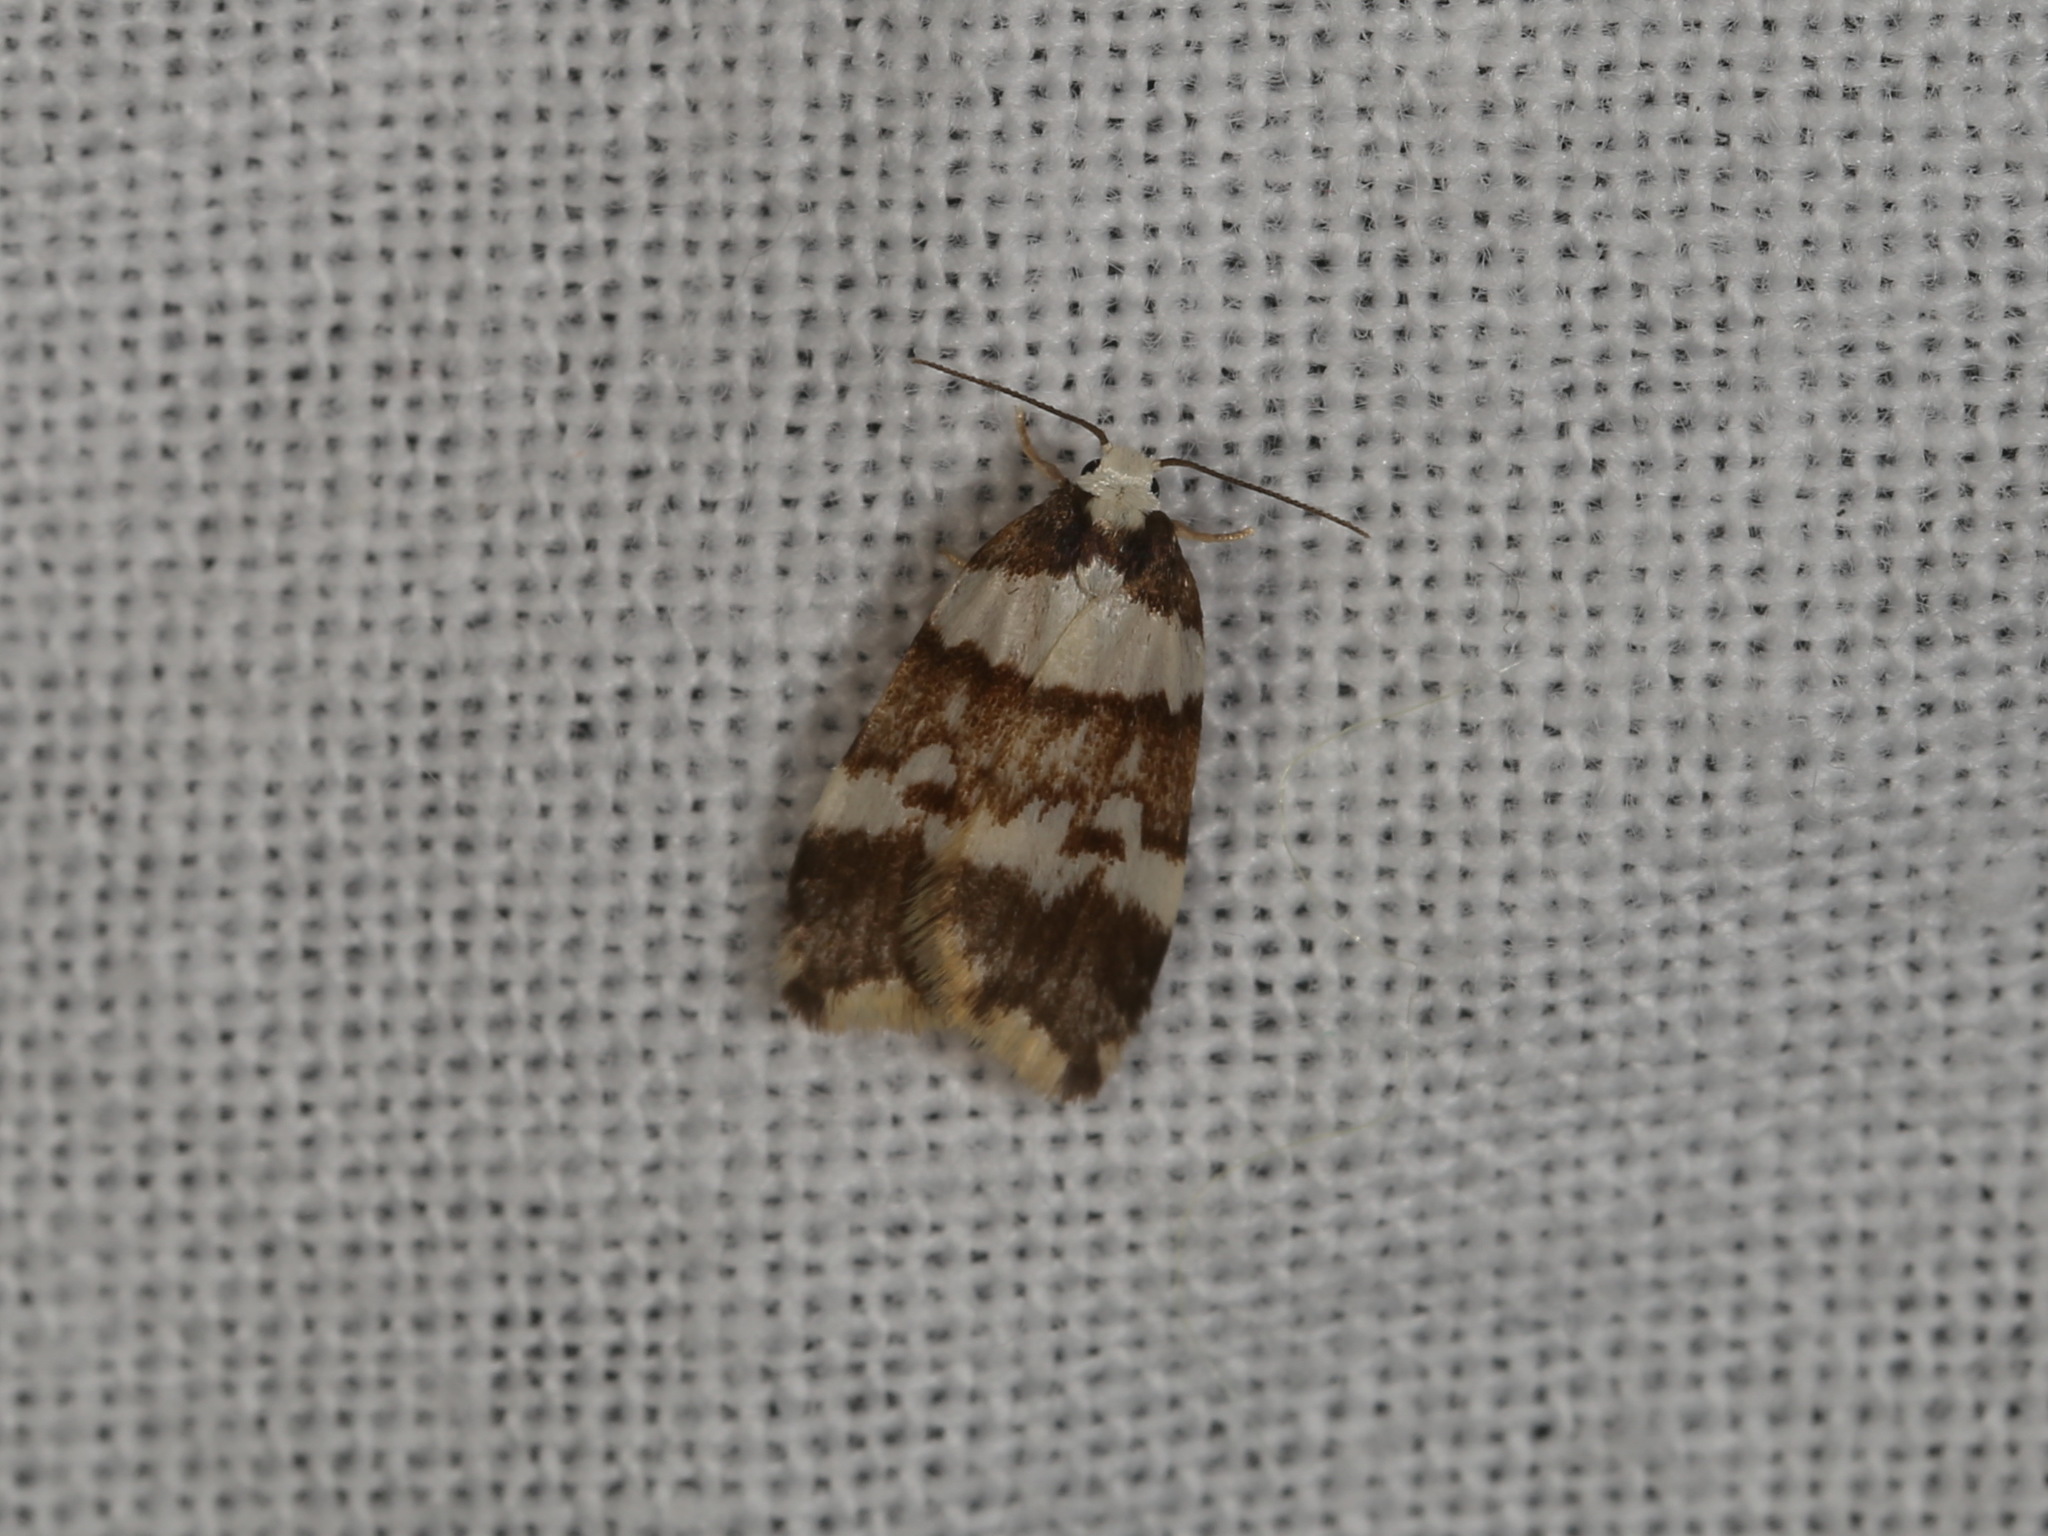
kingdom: Animalia
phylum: Arthropoda
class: Insecta
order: Lepidoptera
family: Erebidae
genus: Halone
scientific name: Halone sejuncta
